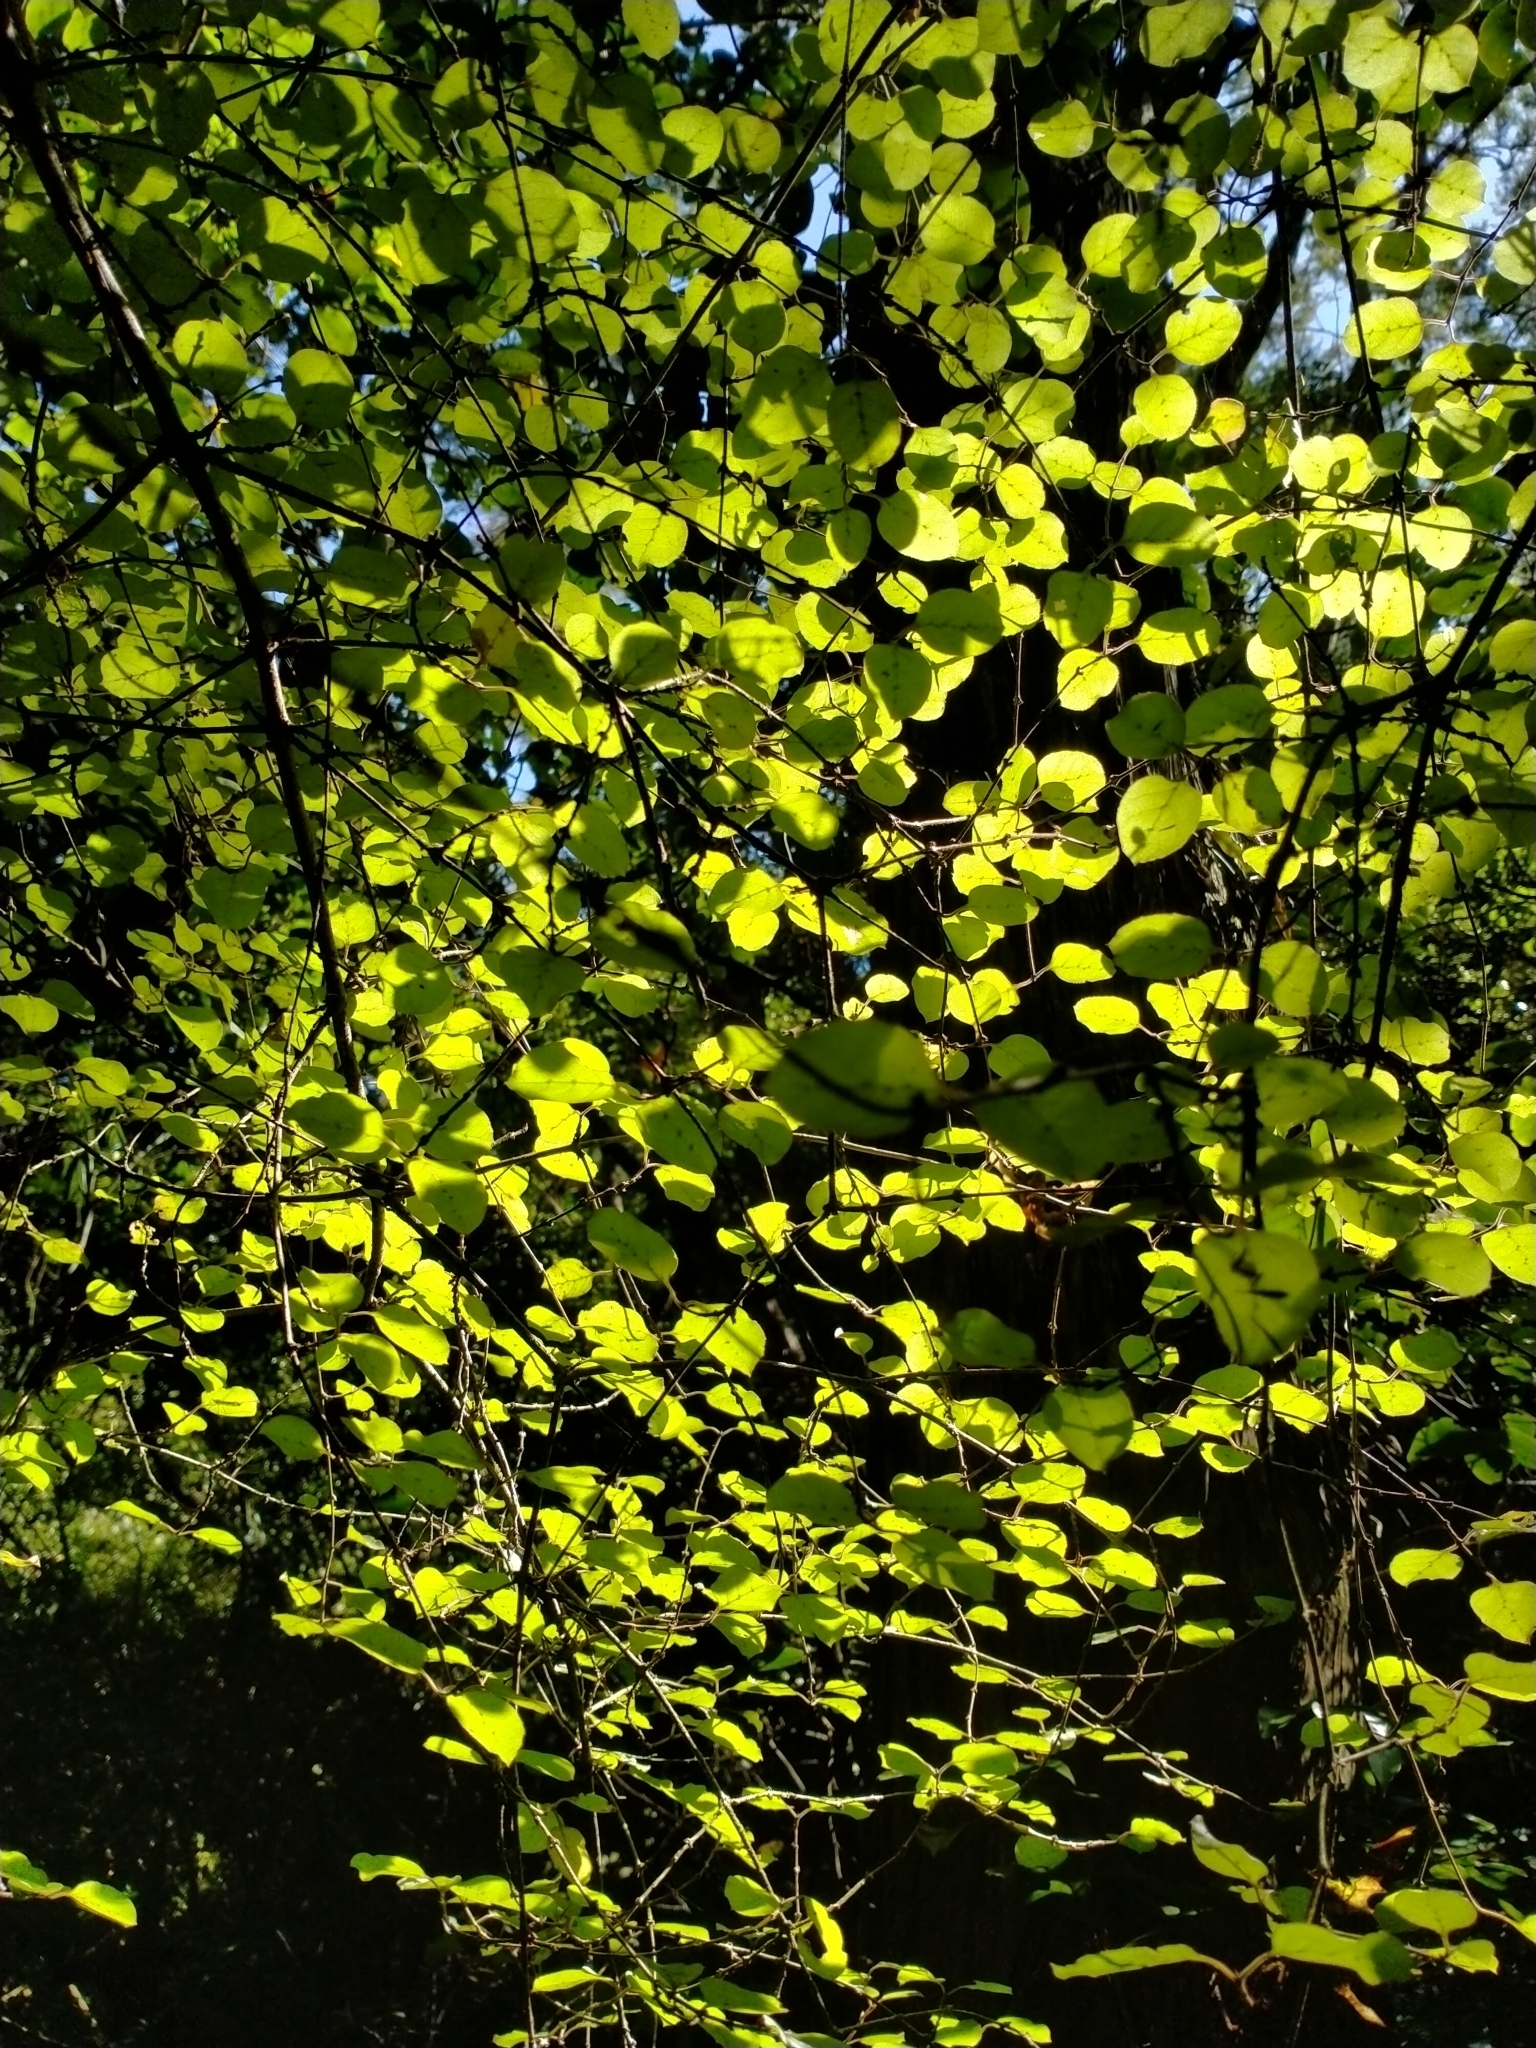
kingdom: Plantae
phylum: Tracheophyta
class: Magnoliopsida
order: Gentianales
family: Rubiaceae
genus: Coprosma
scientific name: Coprosma rotundifolia
